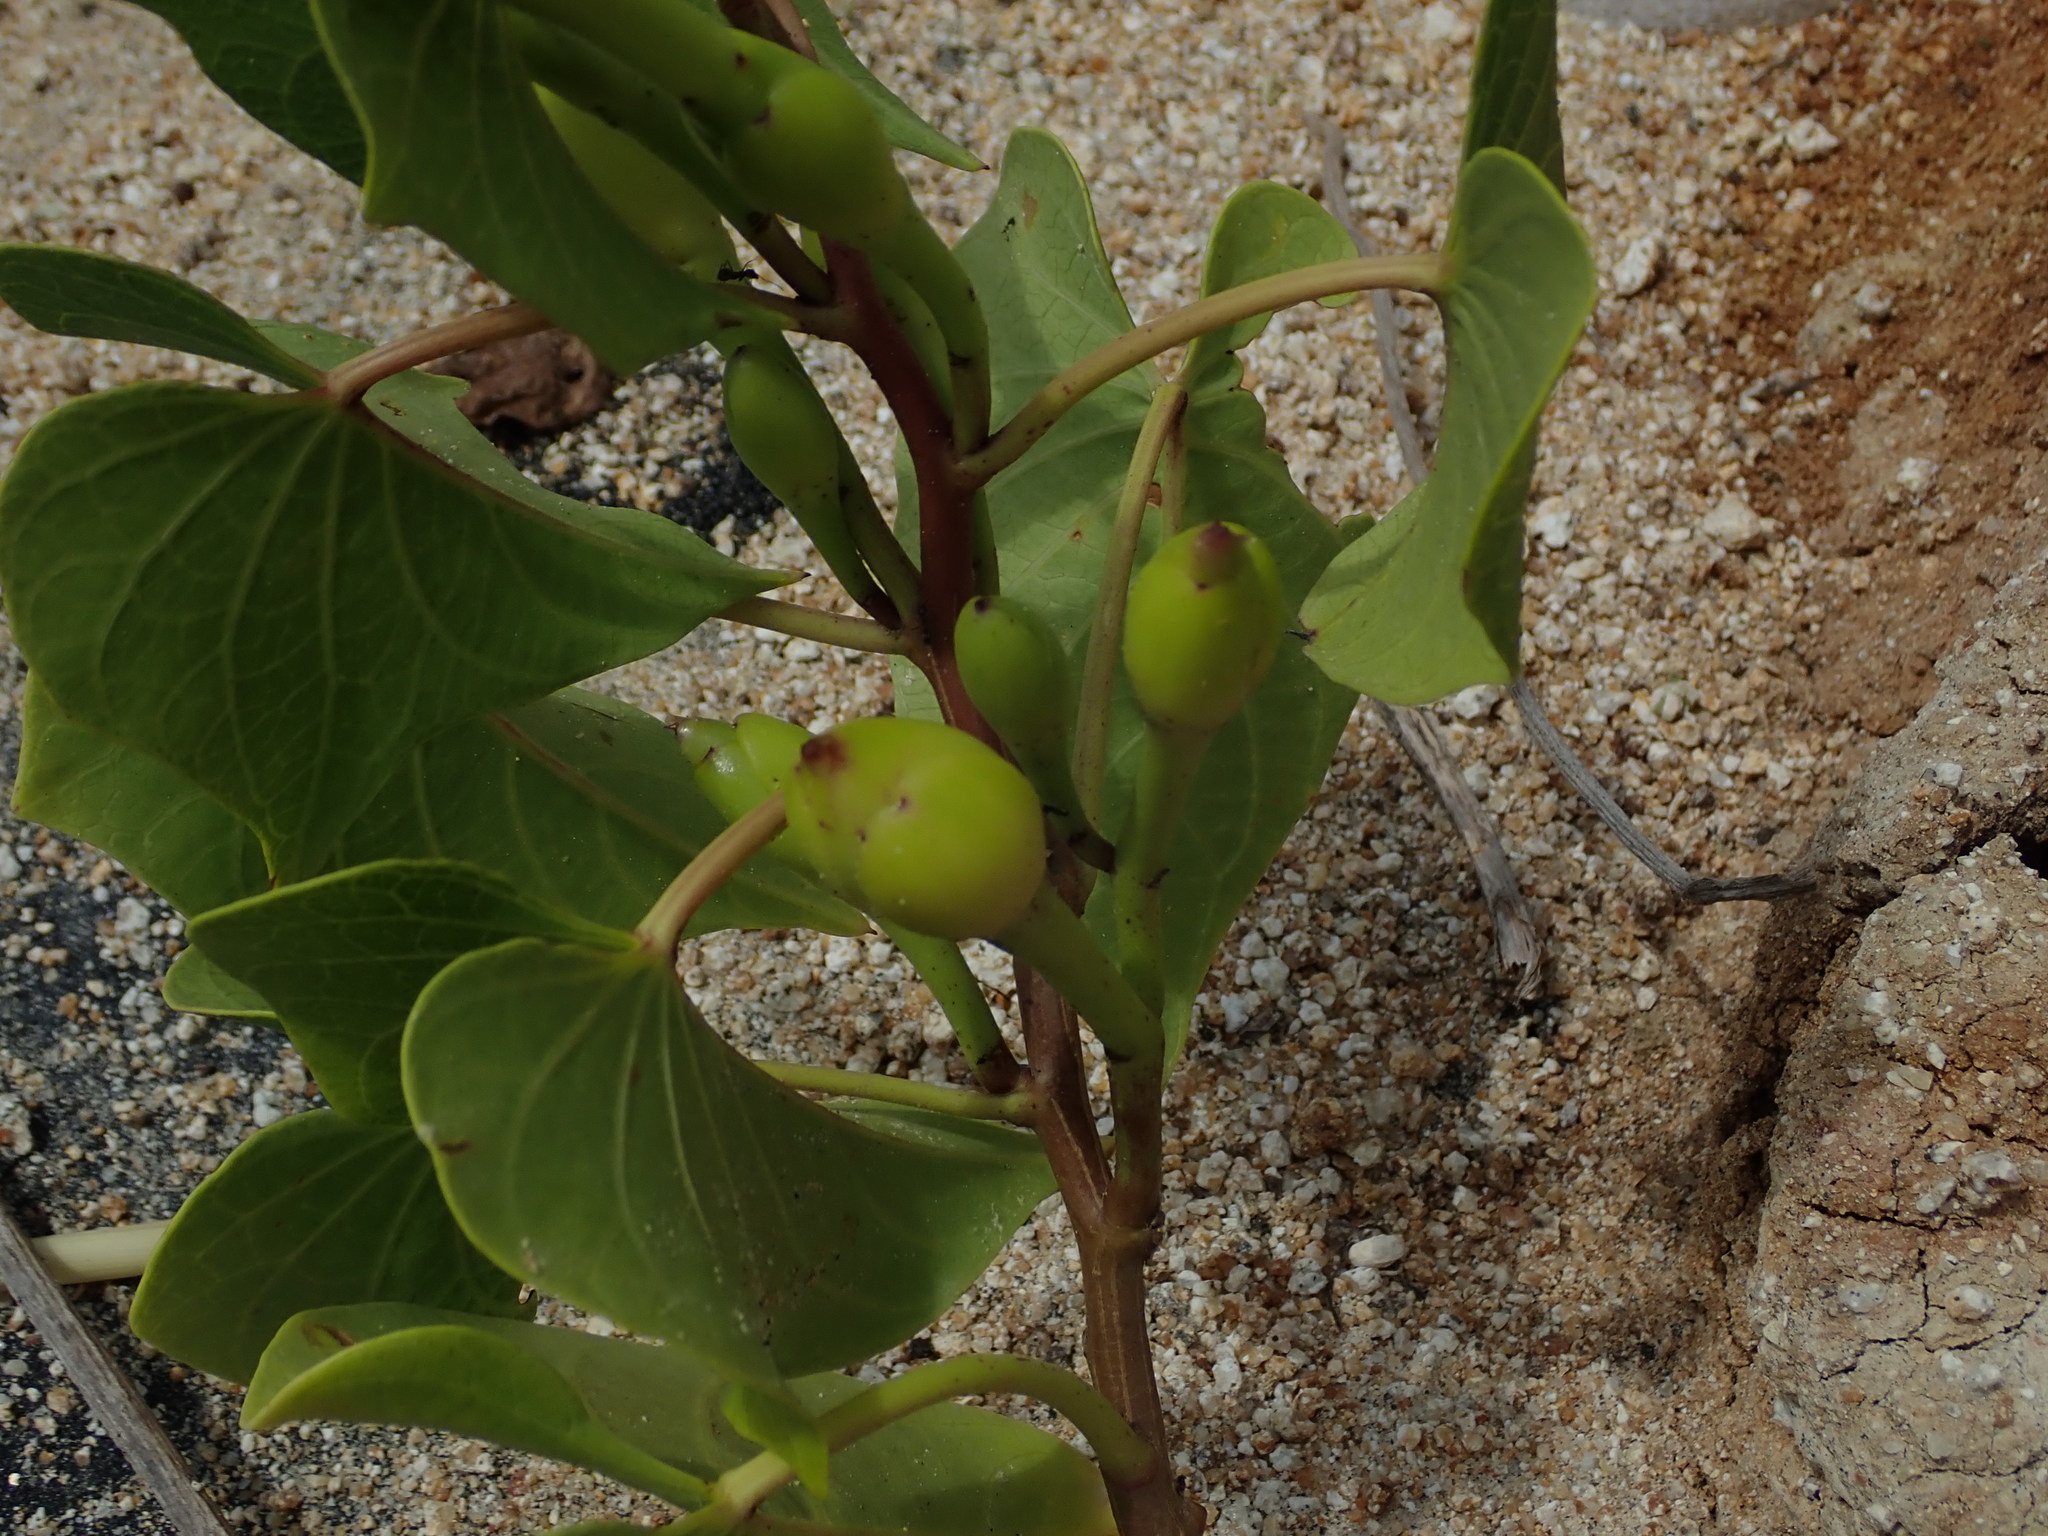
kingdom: Plantae
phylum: Tracheophyta
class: Magnoliopsida
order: Solanales
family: Convolvulaceae
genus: Ipomoea
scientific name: Ipomoea violacea
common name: Beach moonflower
